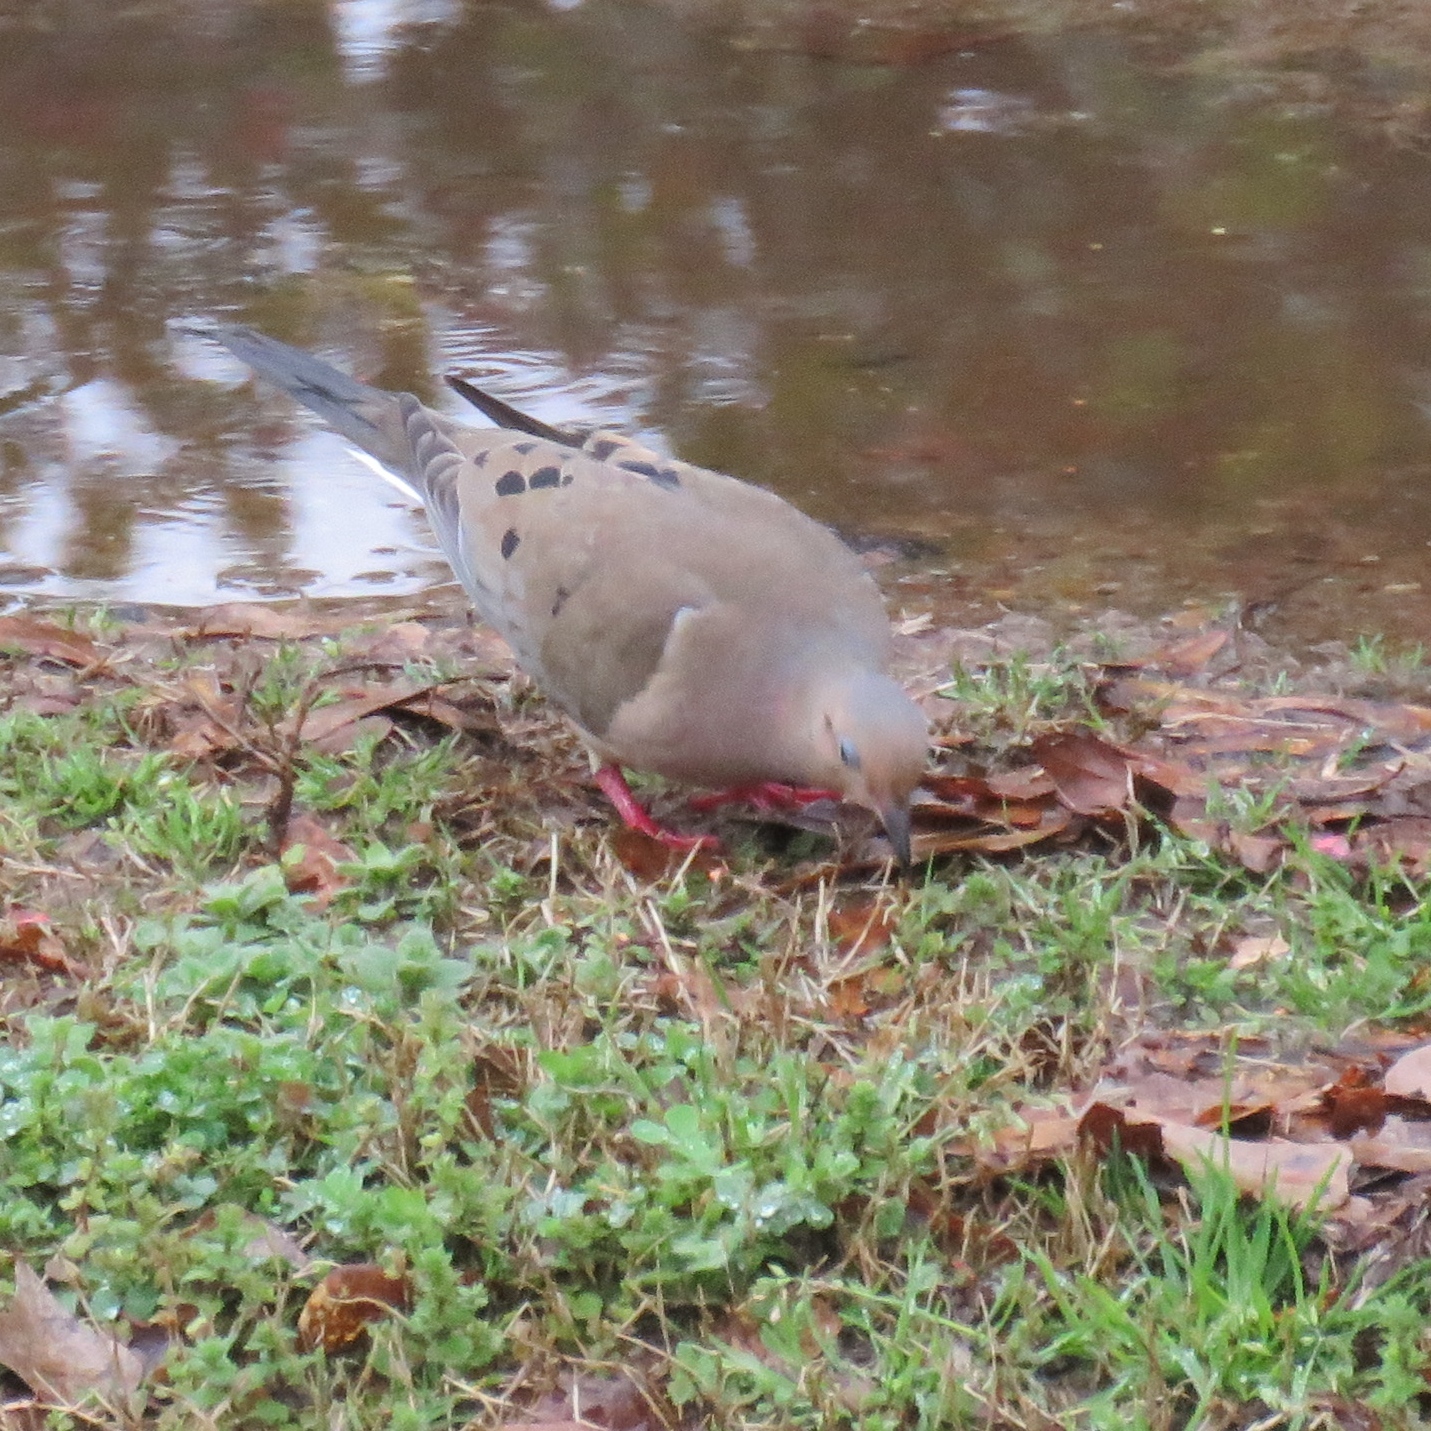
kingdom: Animalia
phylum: Chordata
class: Aves
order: Columbiformes
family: Columbidae
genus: Zenaida
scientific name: Zenaida macroura
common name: Mourning dove
